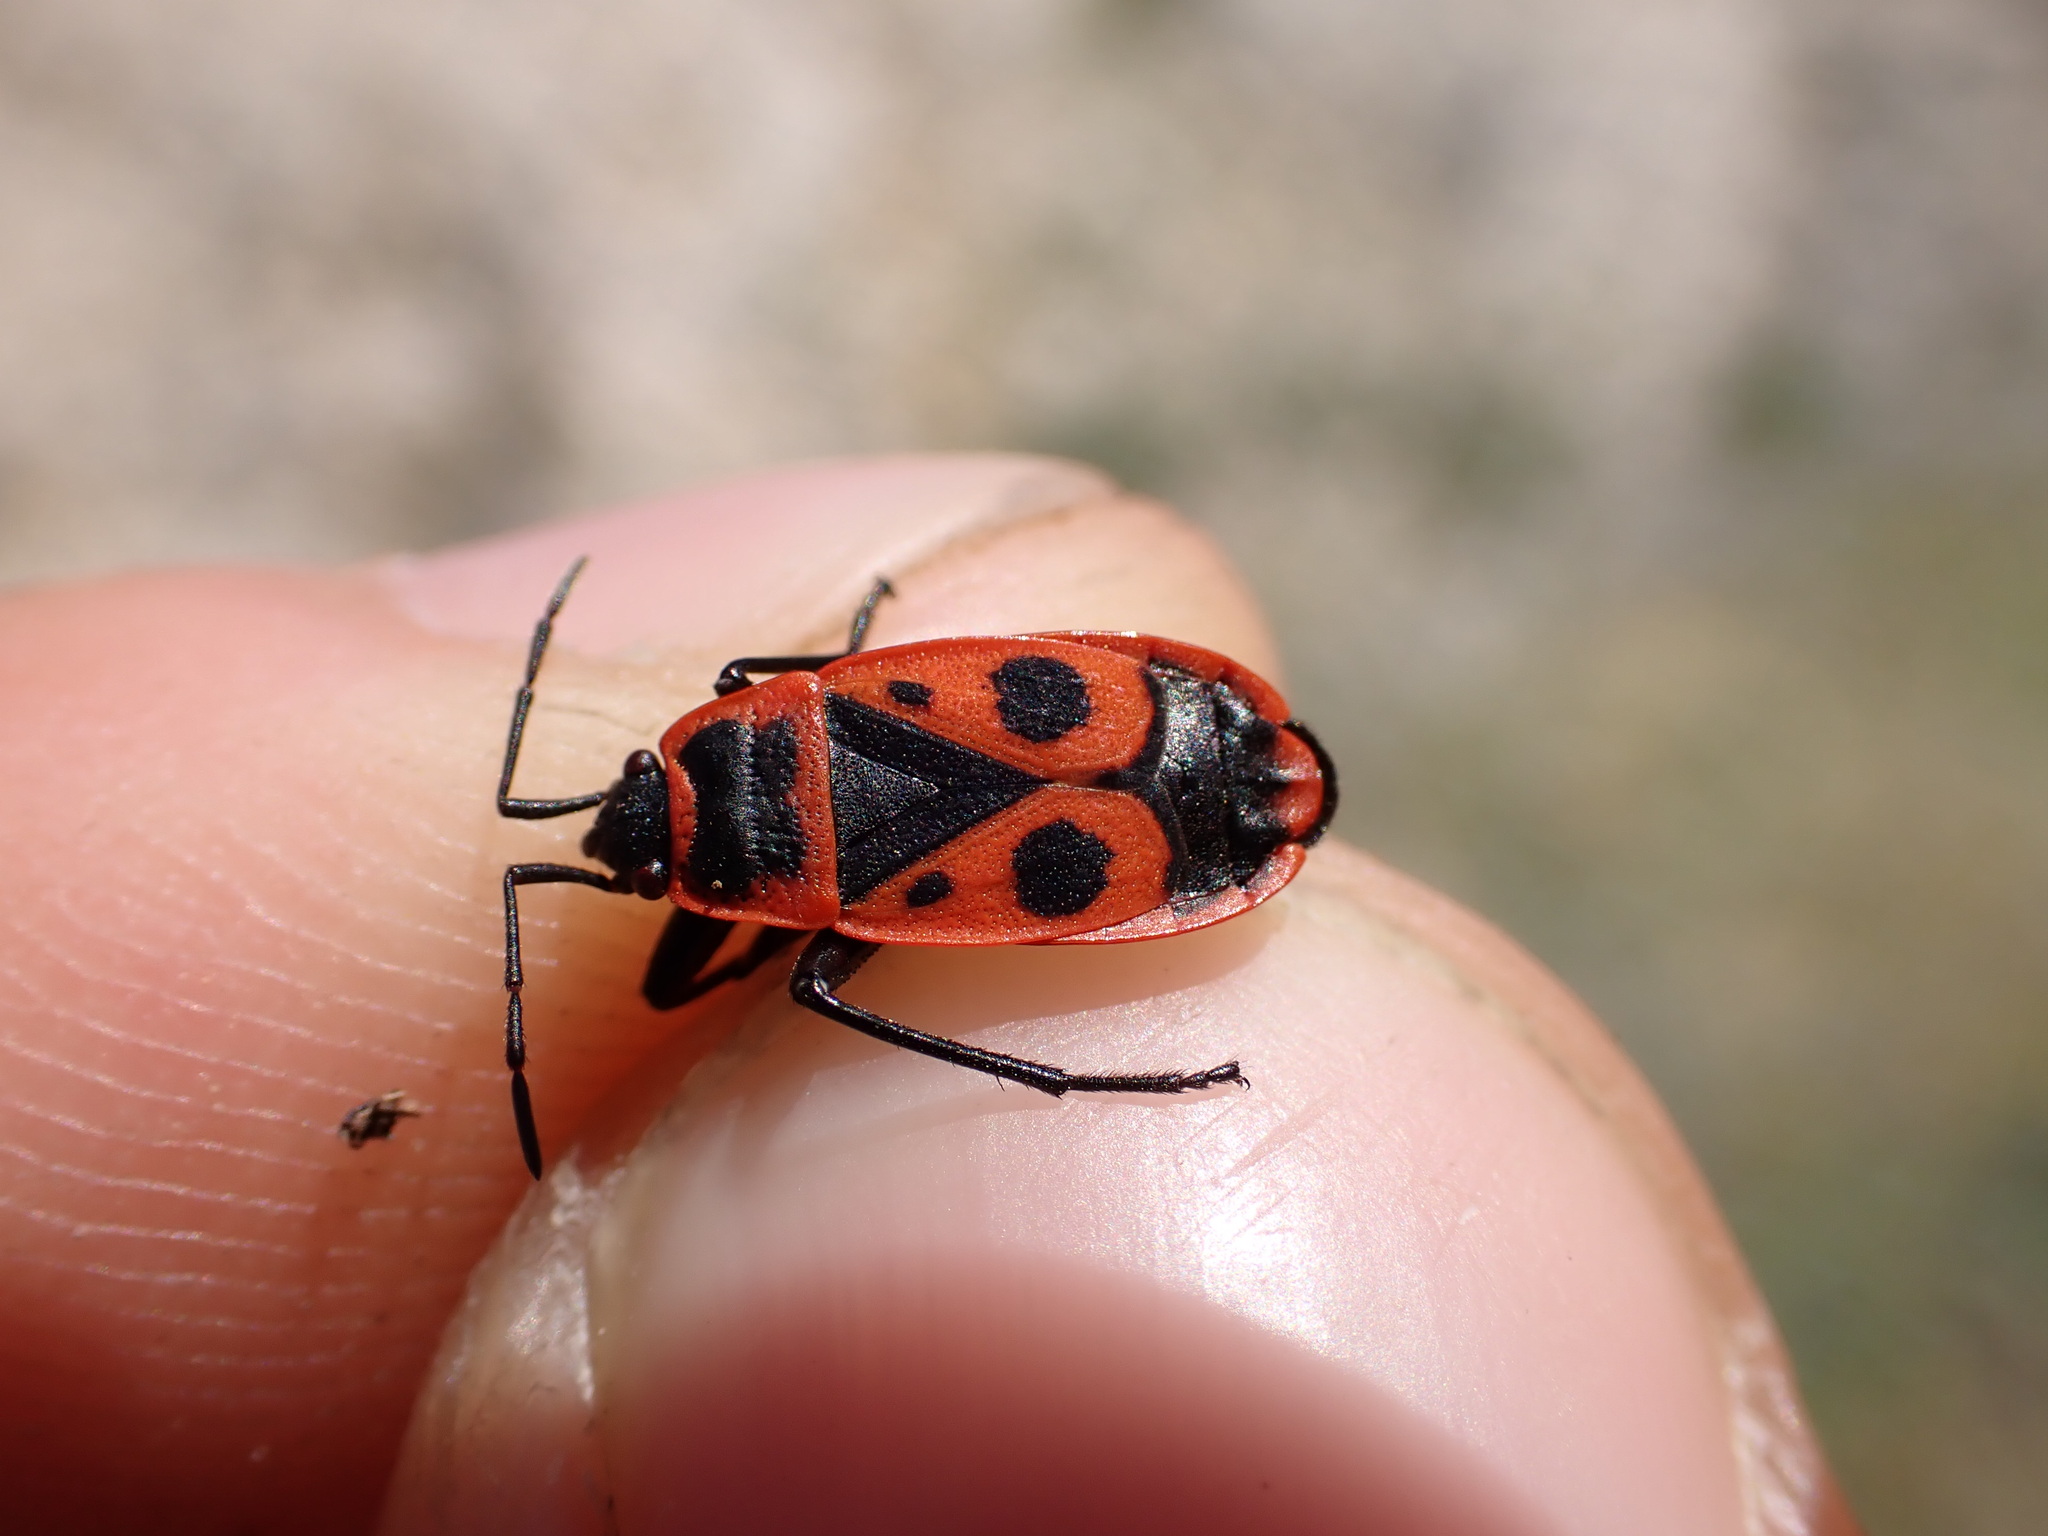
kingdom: Animalia
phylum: Arthropoda
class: Insecta
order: Hemiptera
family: Pyrrhocoridae
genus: Pyrrhocoris
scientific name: Pyrrhocoris apterus
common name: Firebug
